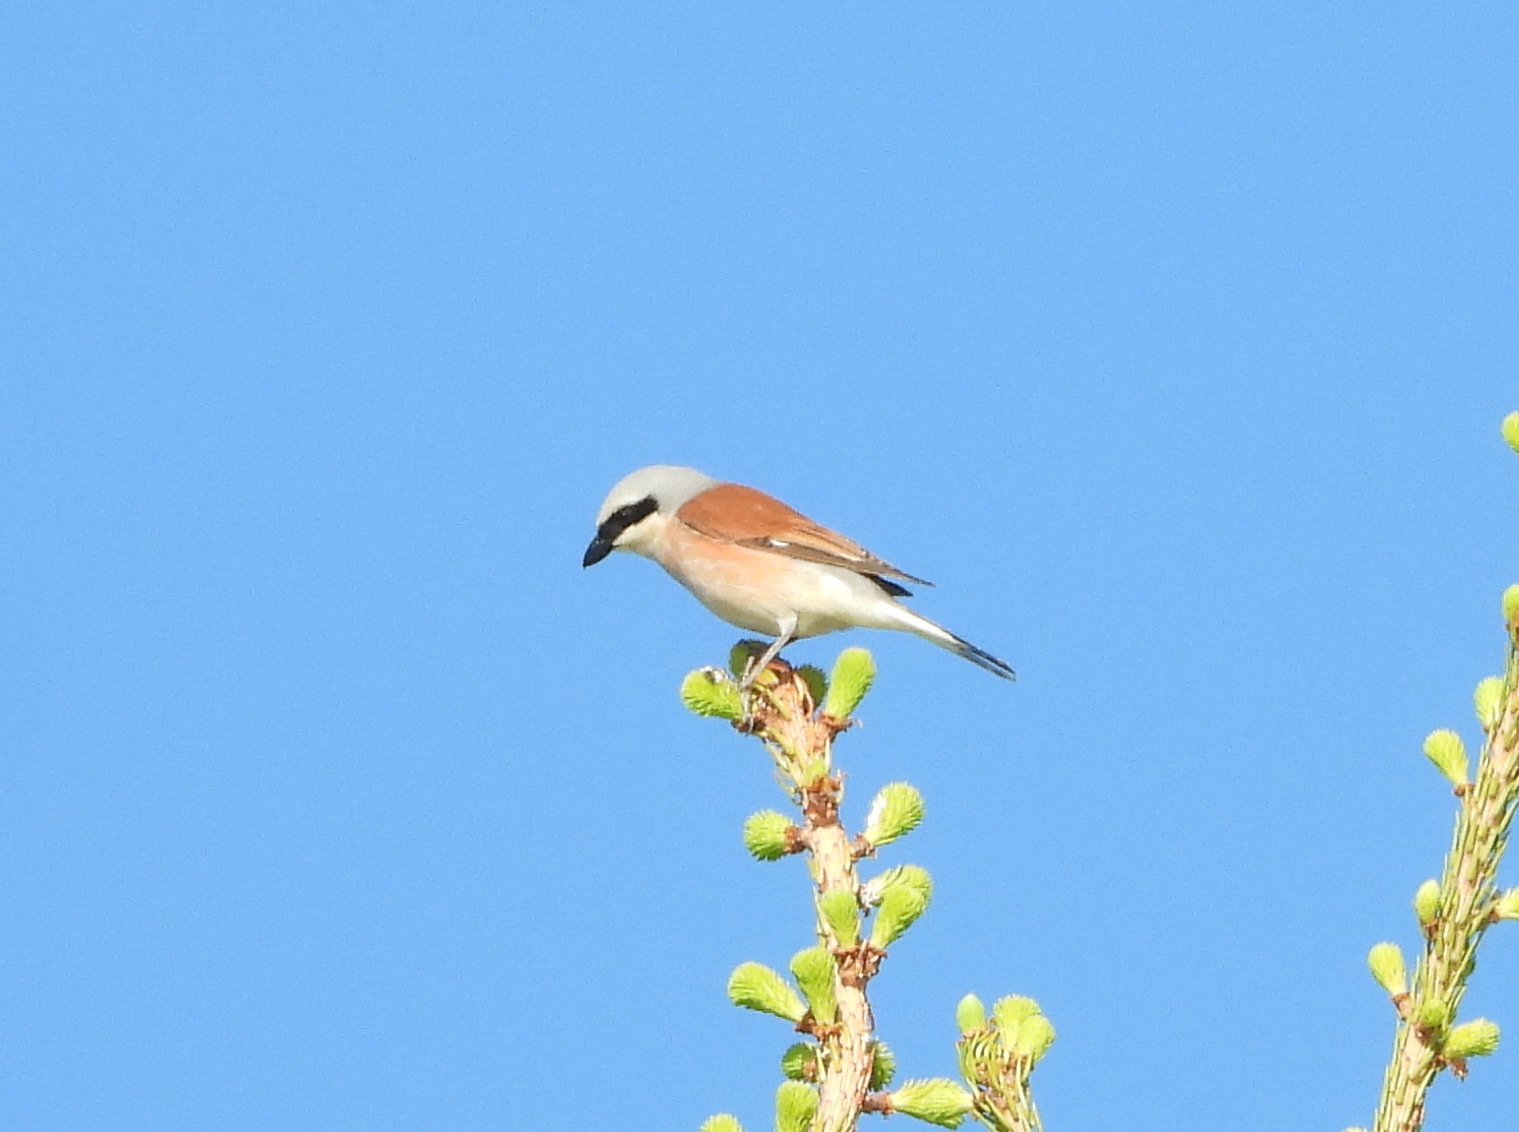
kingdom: Animalia
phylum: Chordata
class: Aves
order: Passeriformes
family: Laniidae
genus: Lanius
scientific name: Lanius collurio
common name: Red-backed shrike
